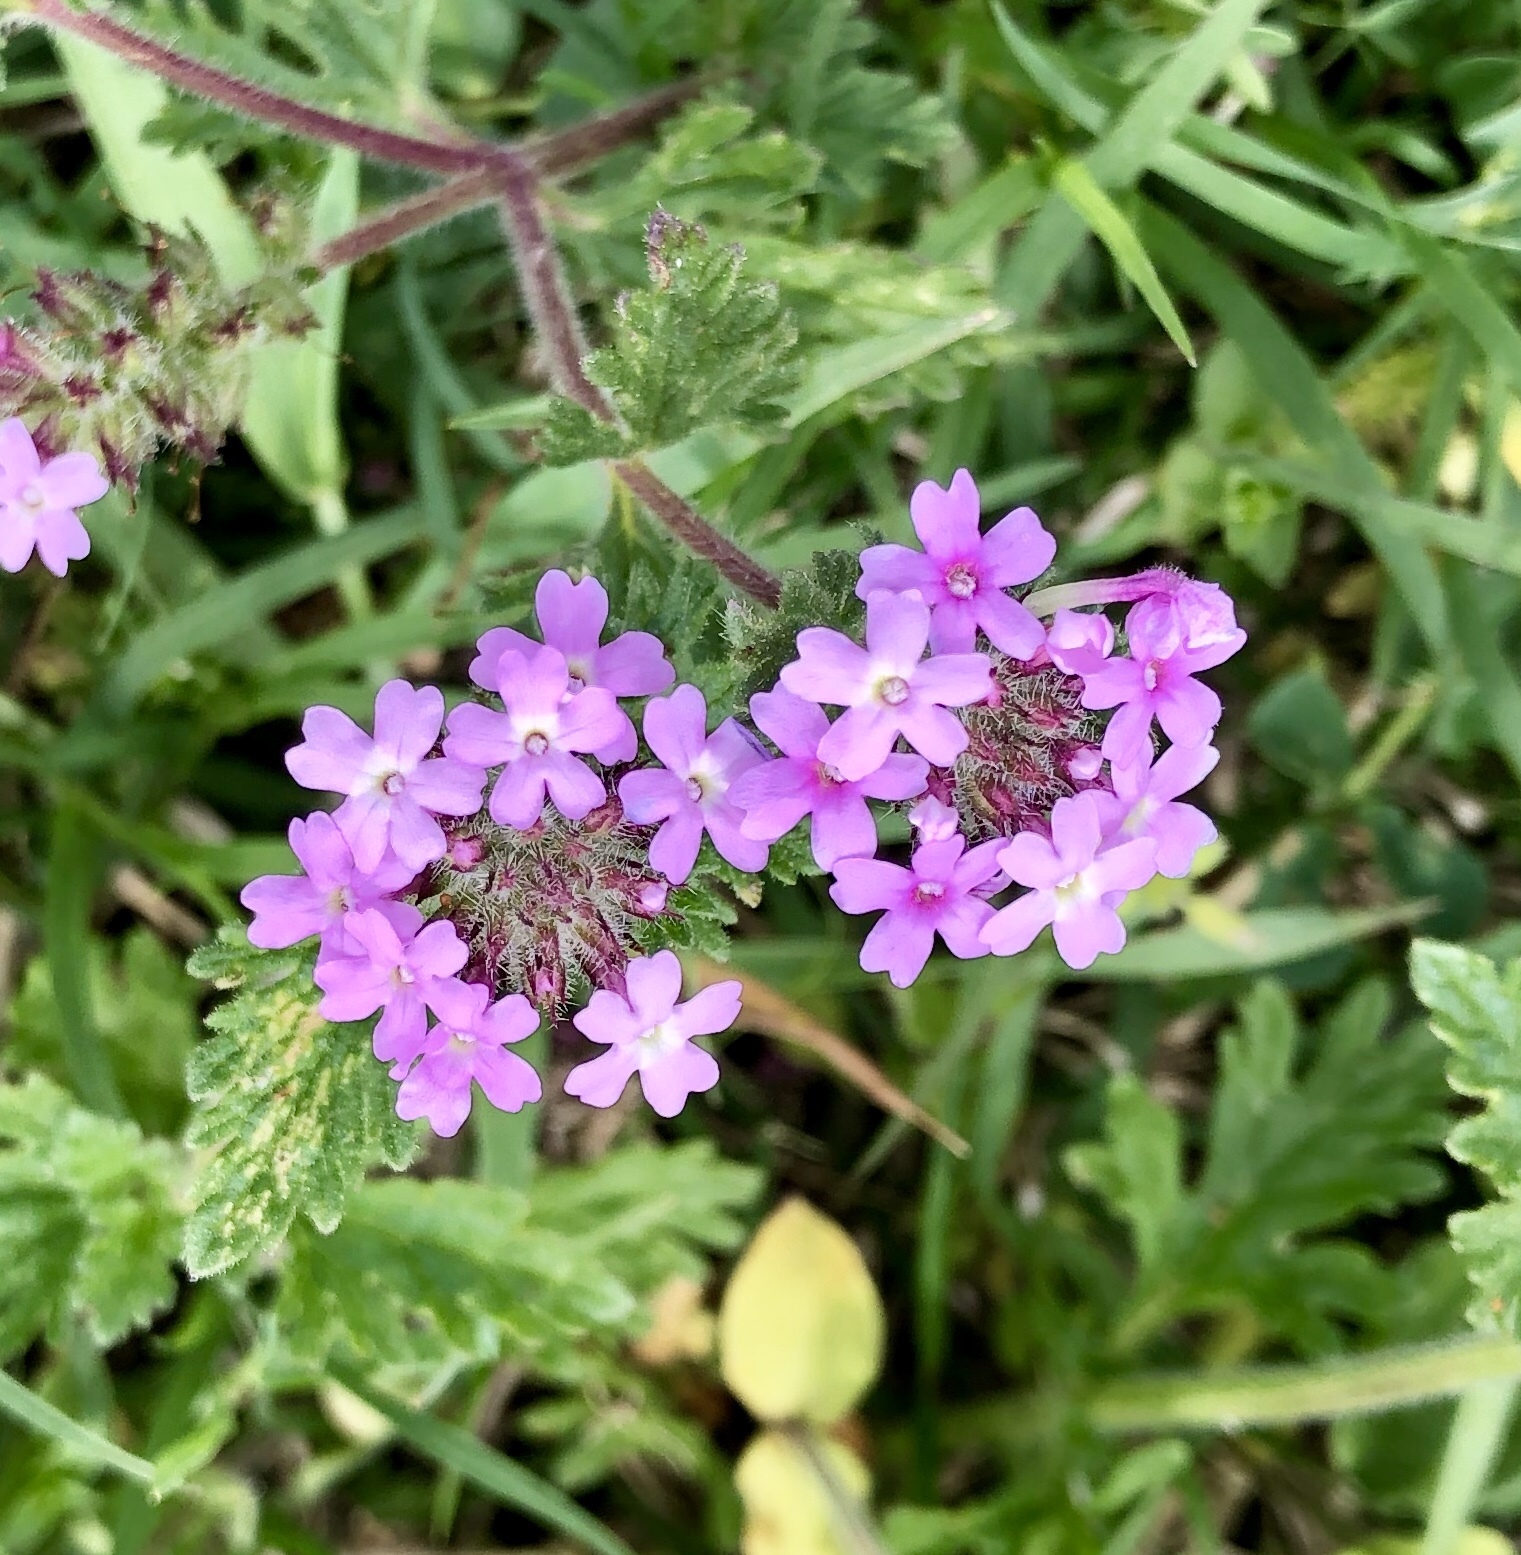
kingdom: Plantae
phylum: Tracheophyta
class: Magnoliopsida
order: Lamiales
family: Verbenaceae
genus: Verbena
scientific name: Verbena pumila
